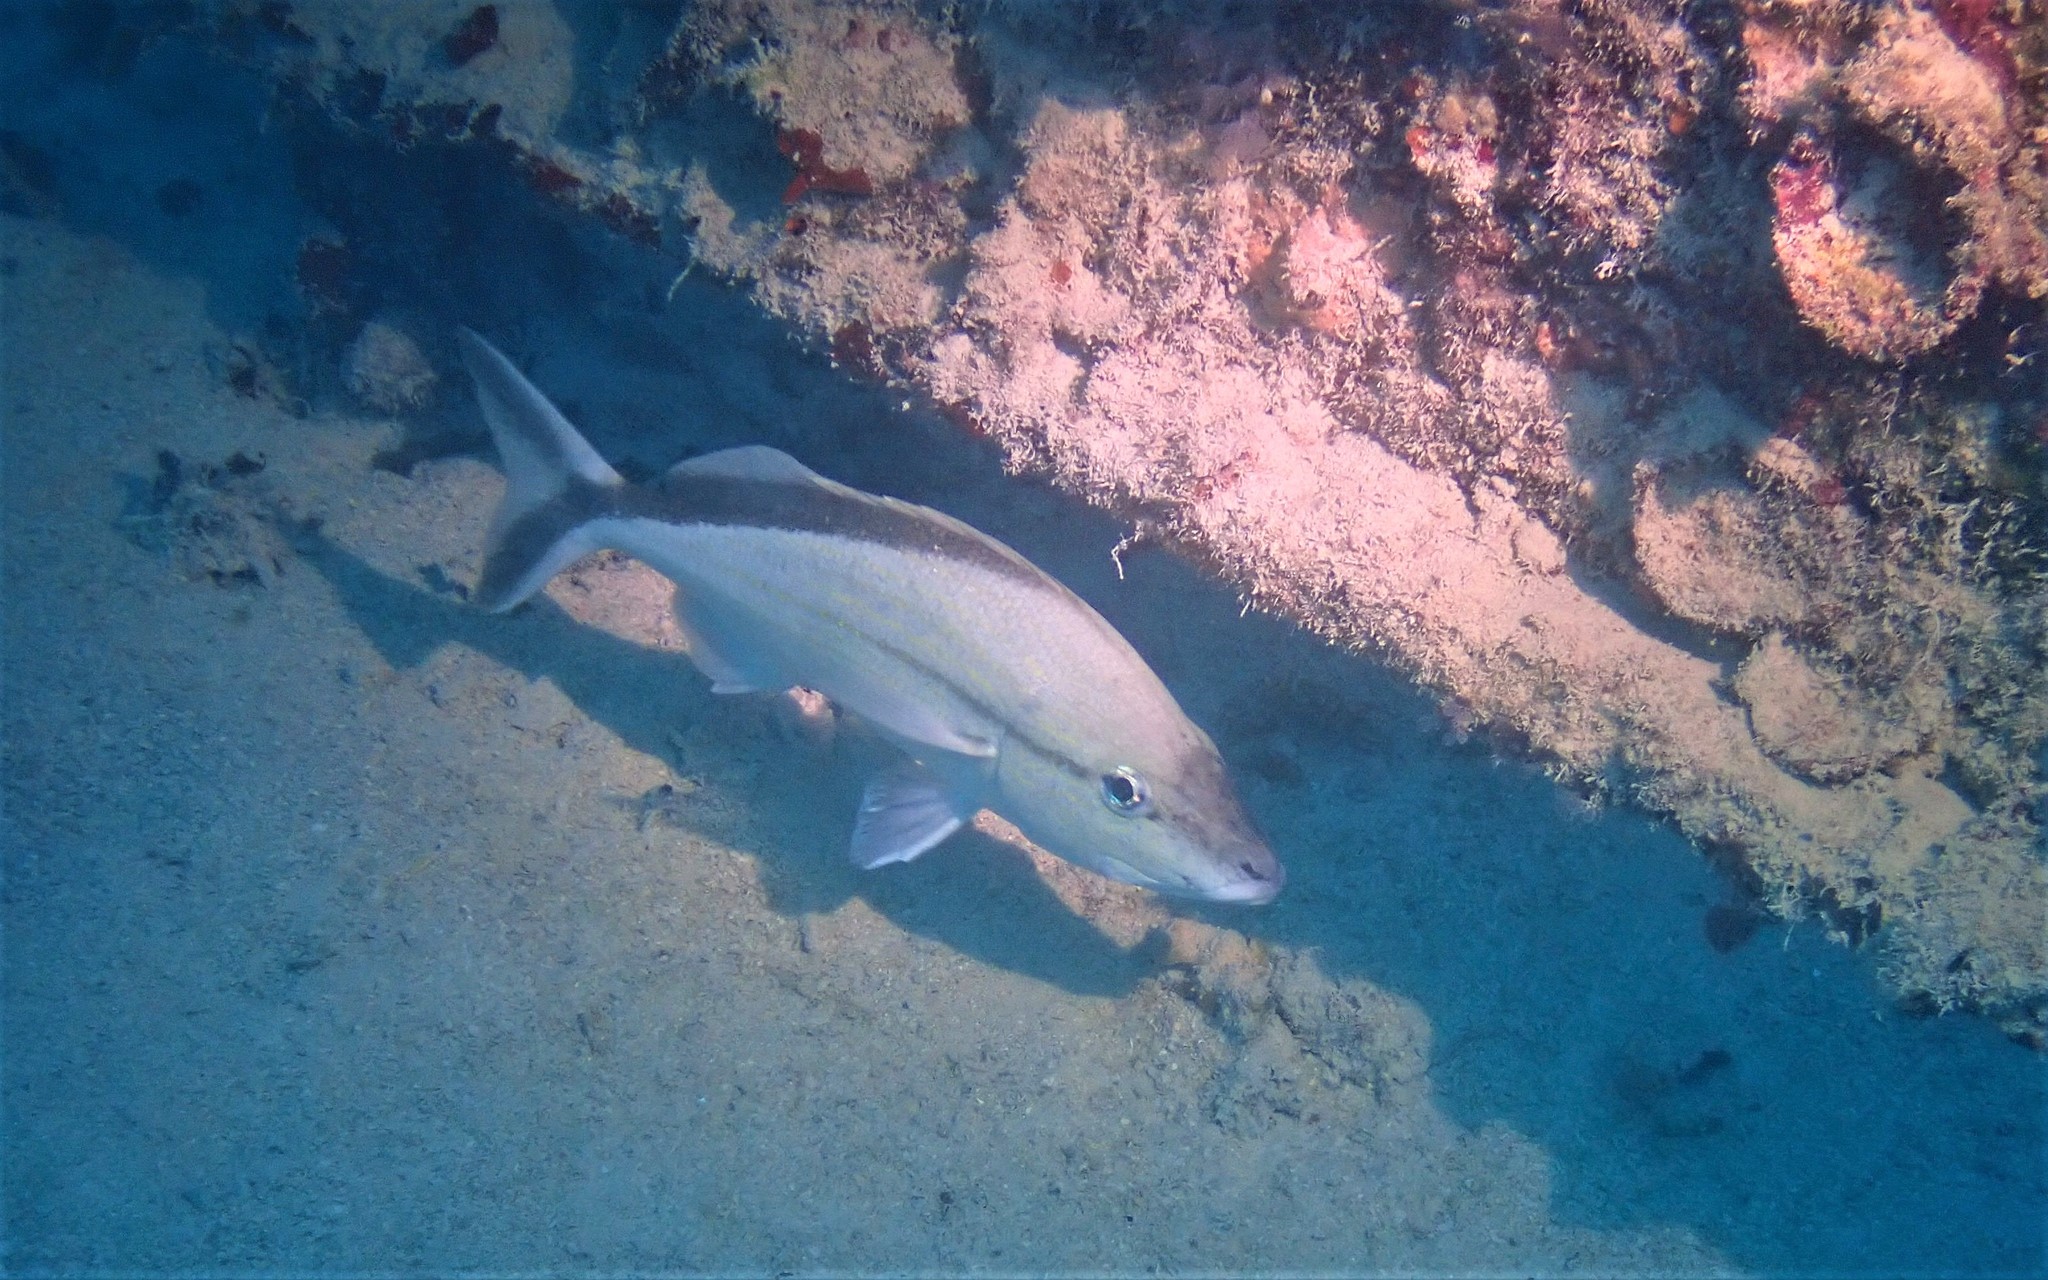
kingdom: Animalia
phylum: Chordata
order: Perciformes
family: Haemulidae
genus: Haemulon
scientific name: Haemulon melanurum
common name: Cottonwick
